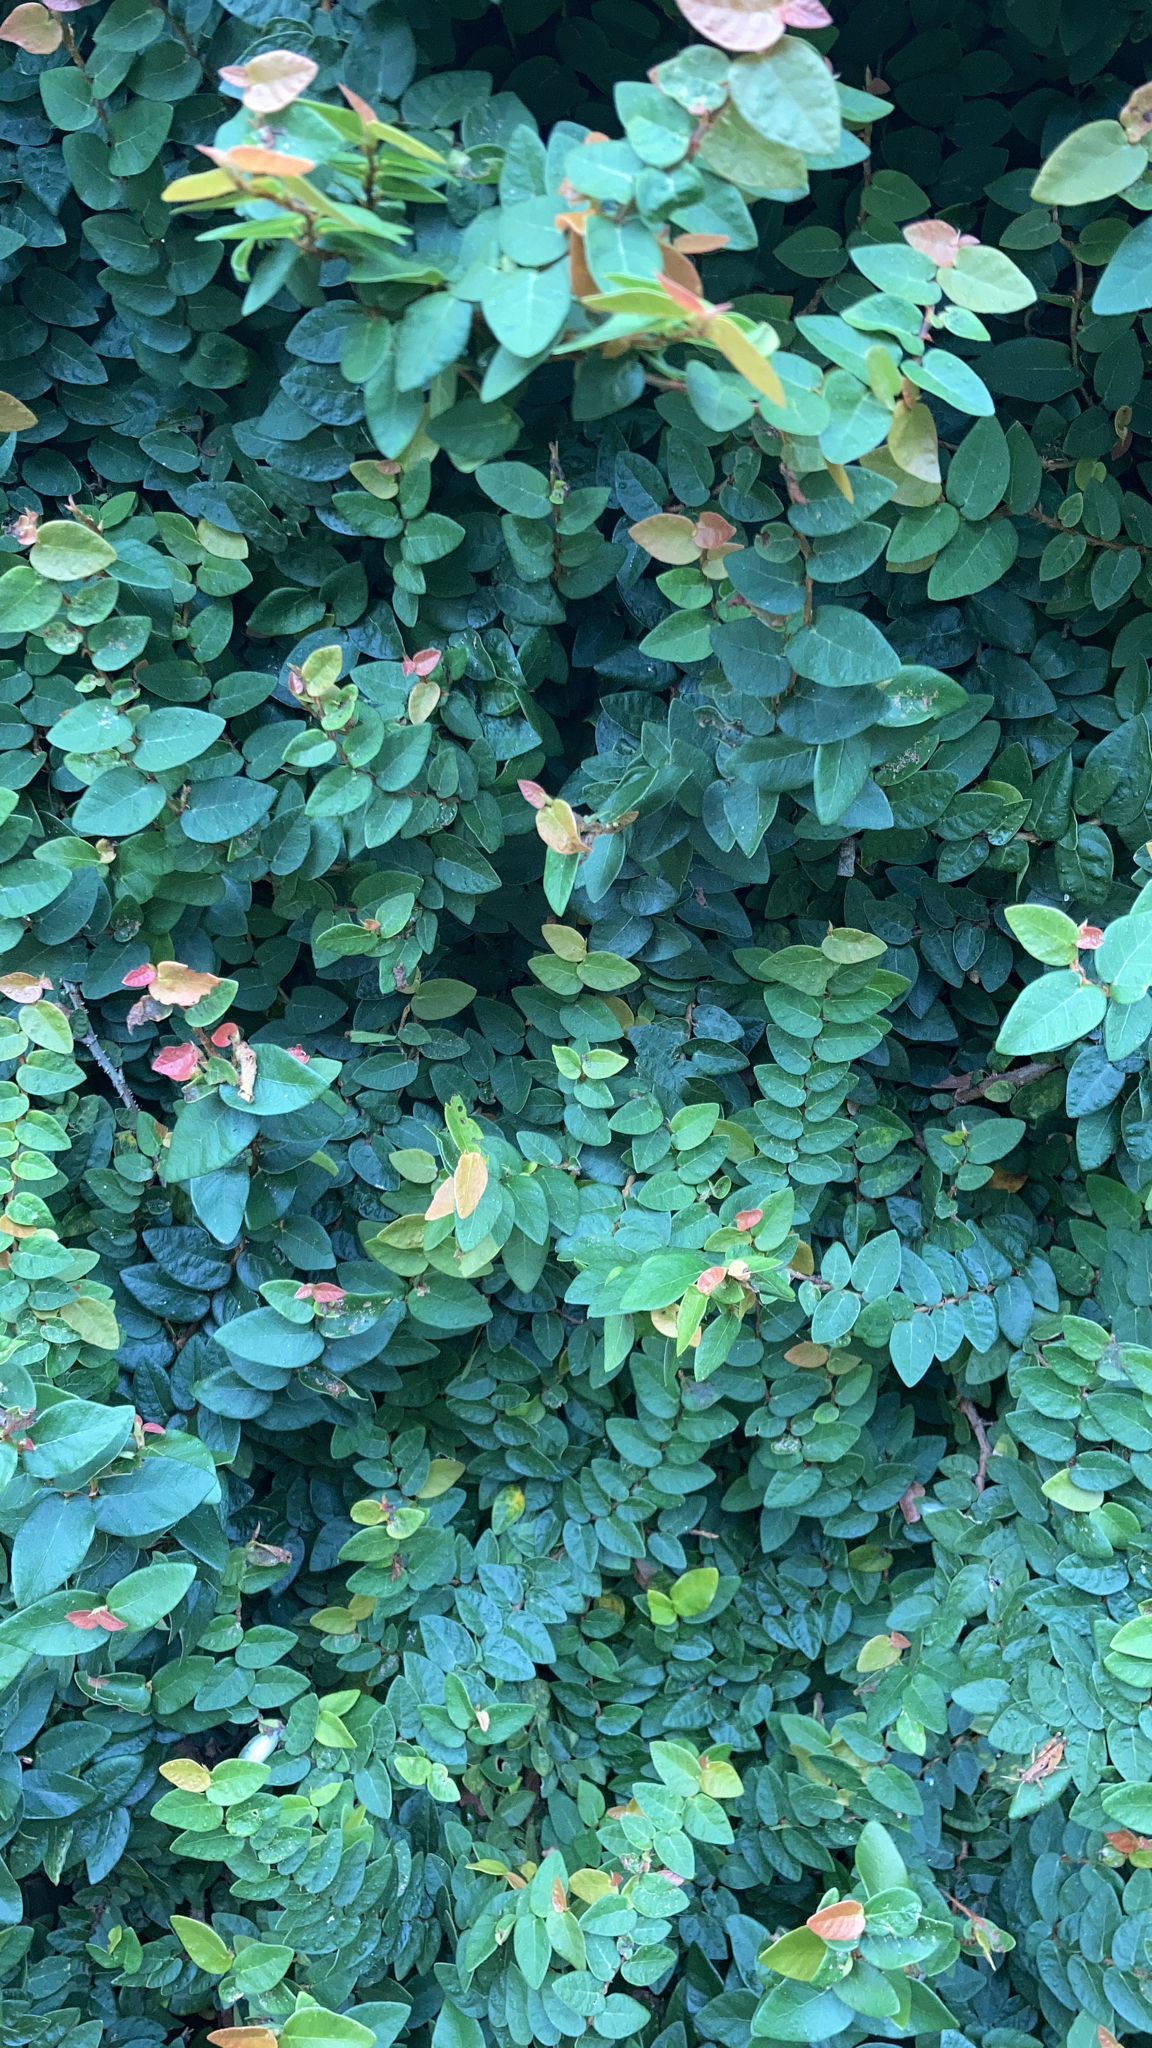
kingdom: Plantae
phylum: Tracheophyta
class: Magnoliopsida
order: Rosales
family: Moraceae
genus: Ficus
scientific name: Ficus pumila
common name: Climbingfig
